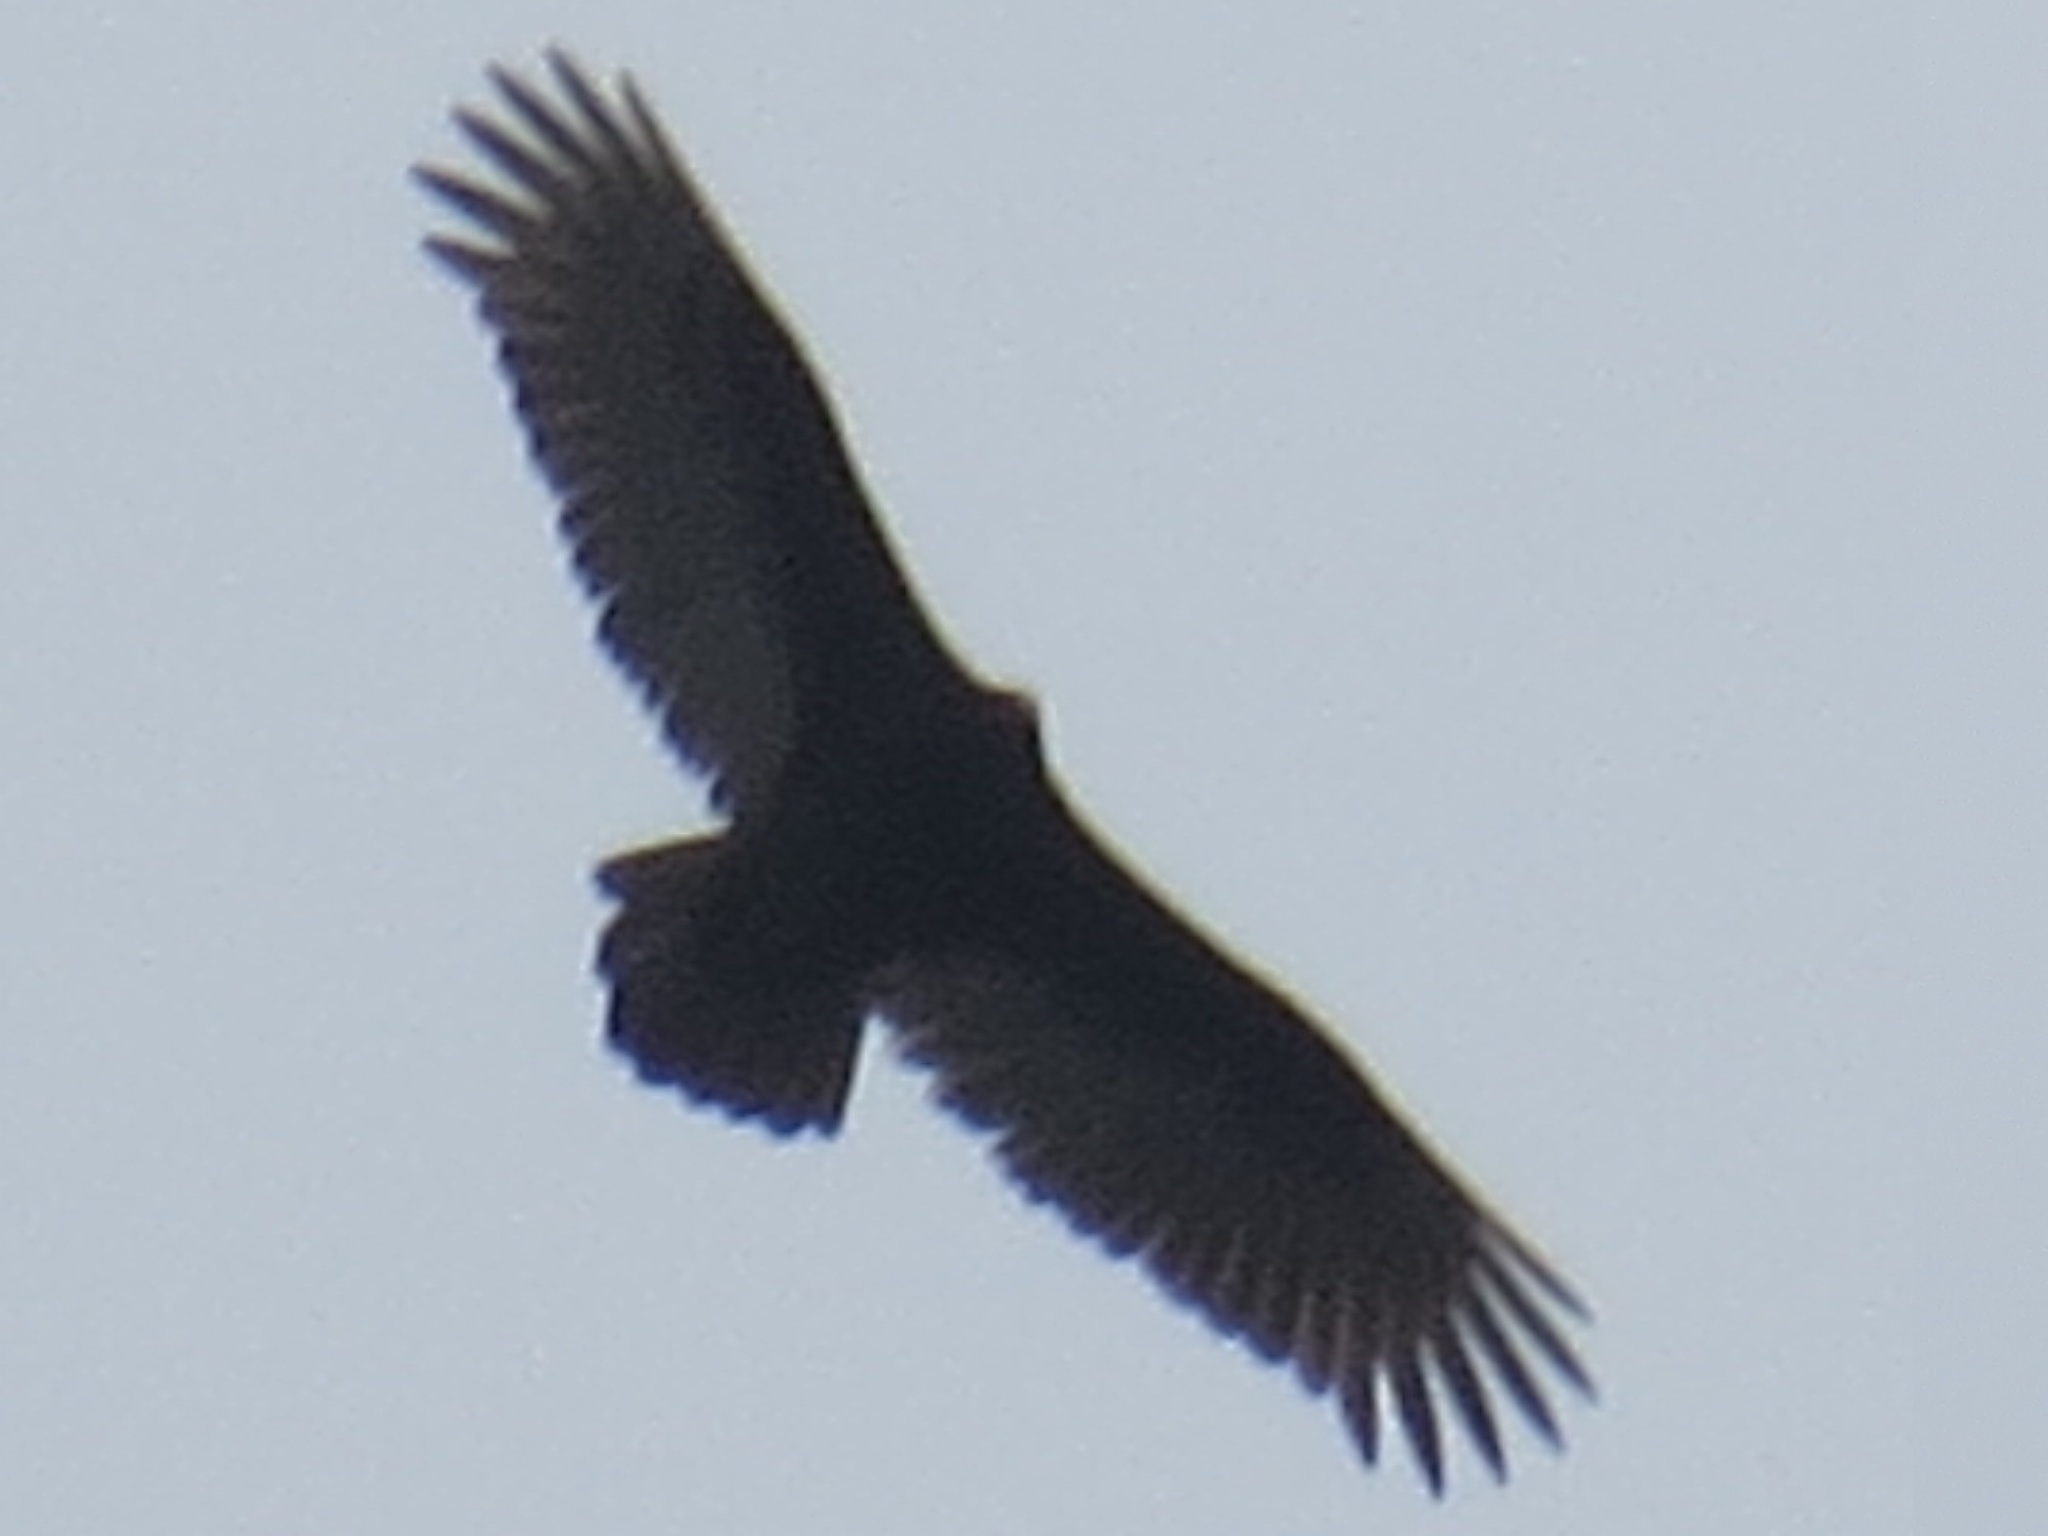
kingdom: Animalia
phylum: Chordata
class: Aves
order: Accipitriformes
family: Cathartidae
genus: Cathartes
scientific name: Cathartes aura
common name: Turkey vulture
